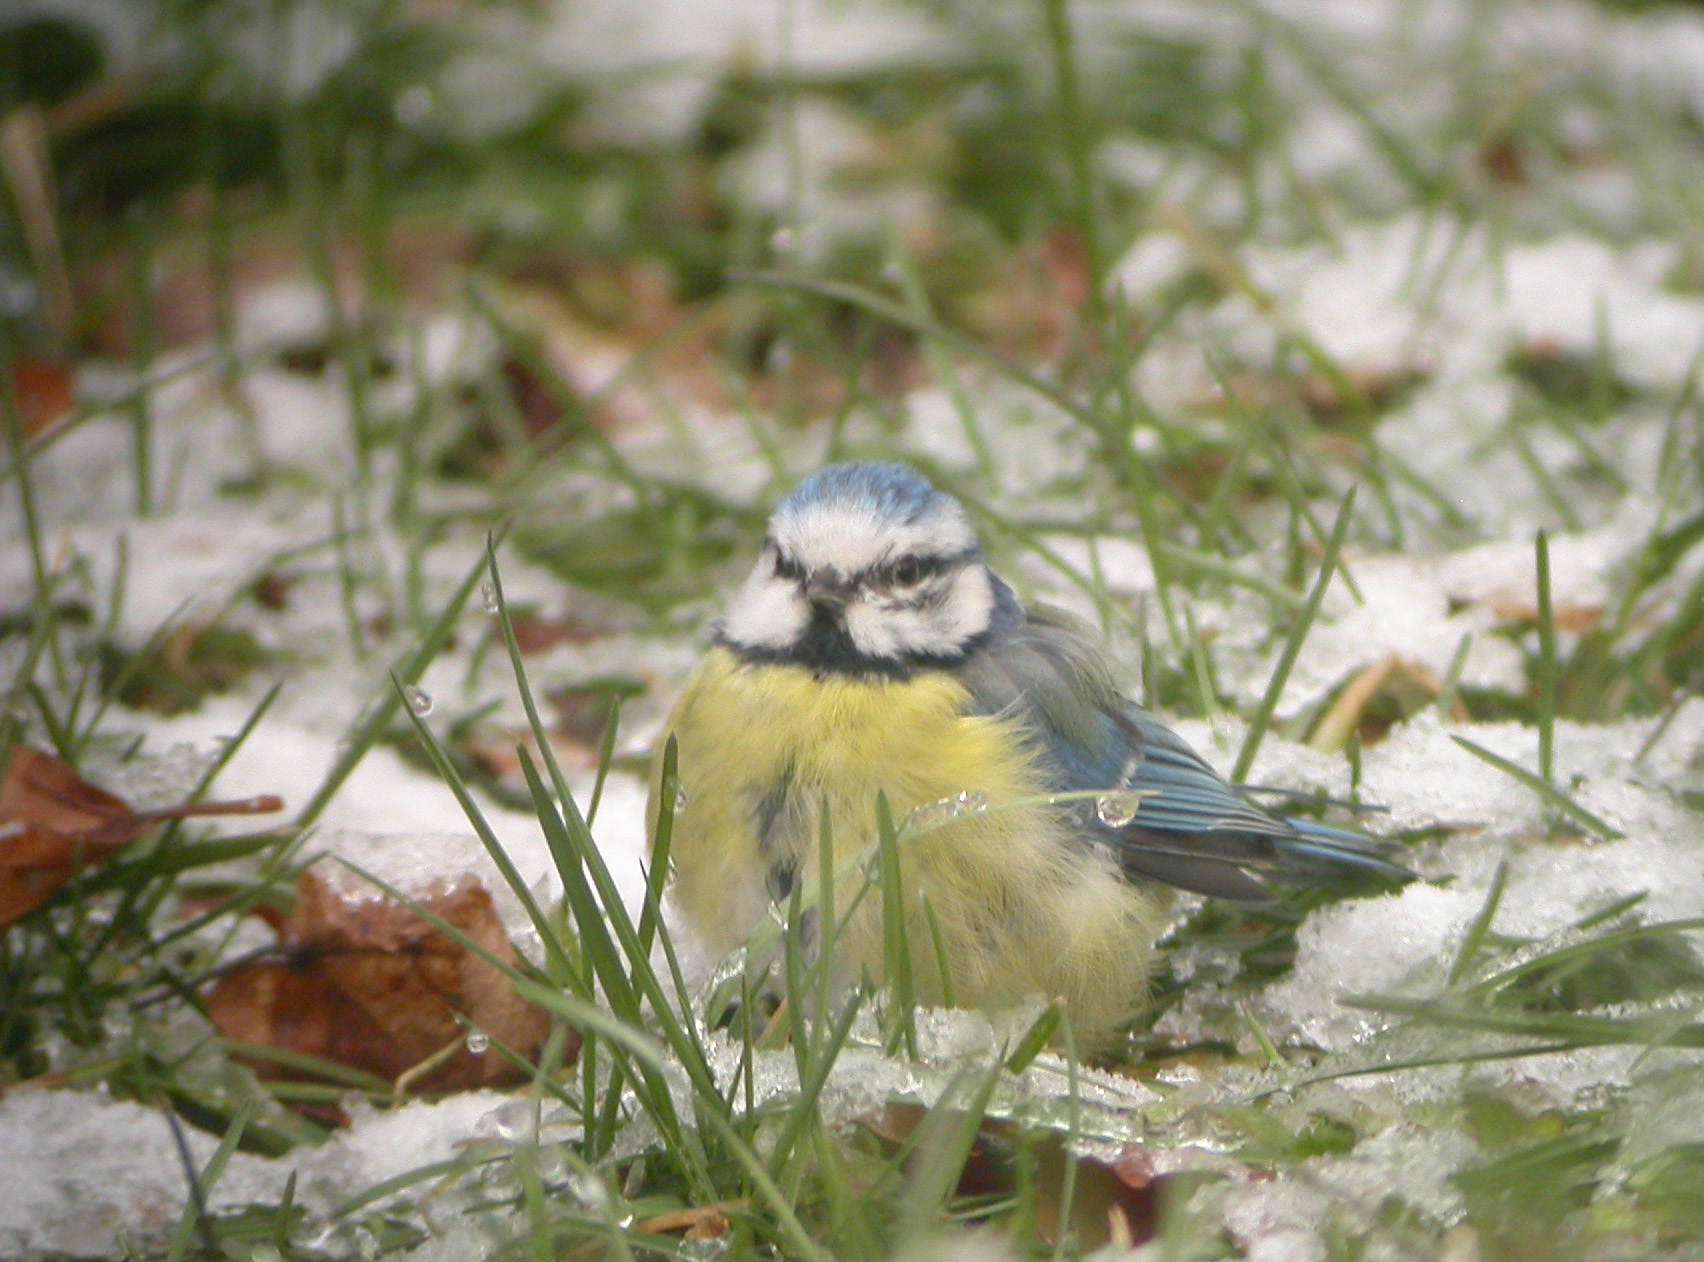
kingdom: Animalia
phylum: Chordata
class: Aves
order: Passeriformes
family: Paridae
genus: Cyanistes
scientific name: Cyanistes caeruleus
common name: Eurasian blue tit
